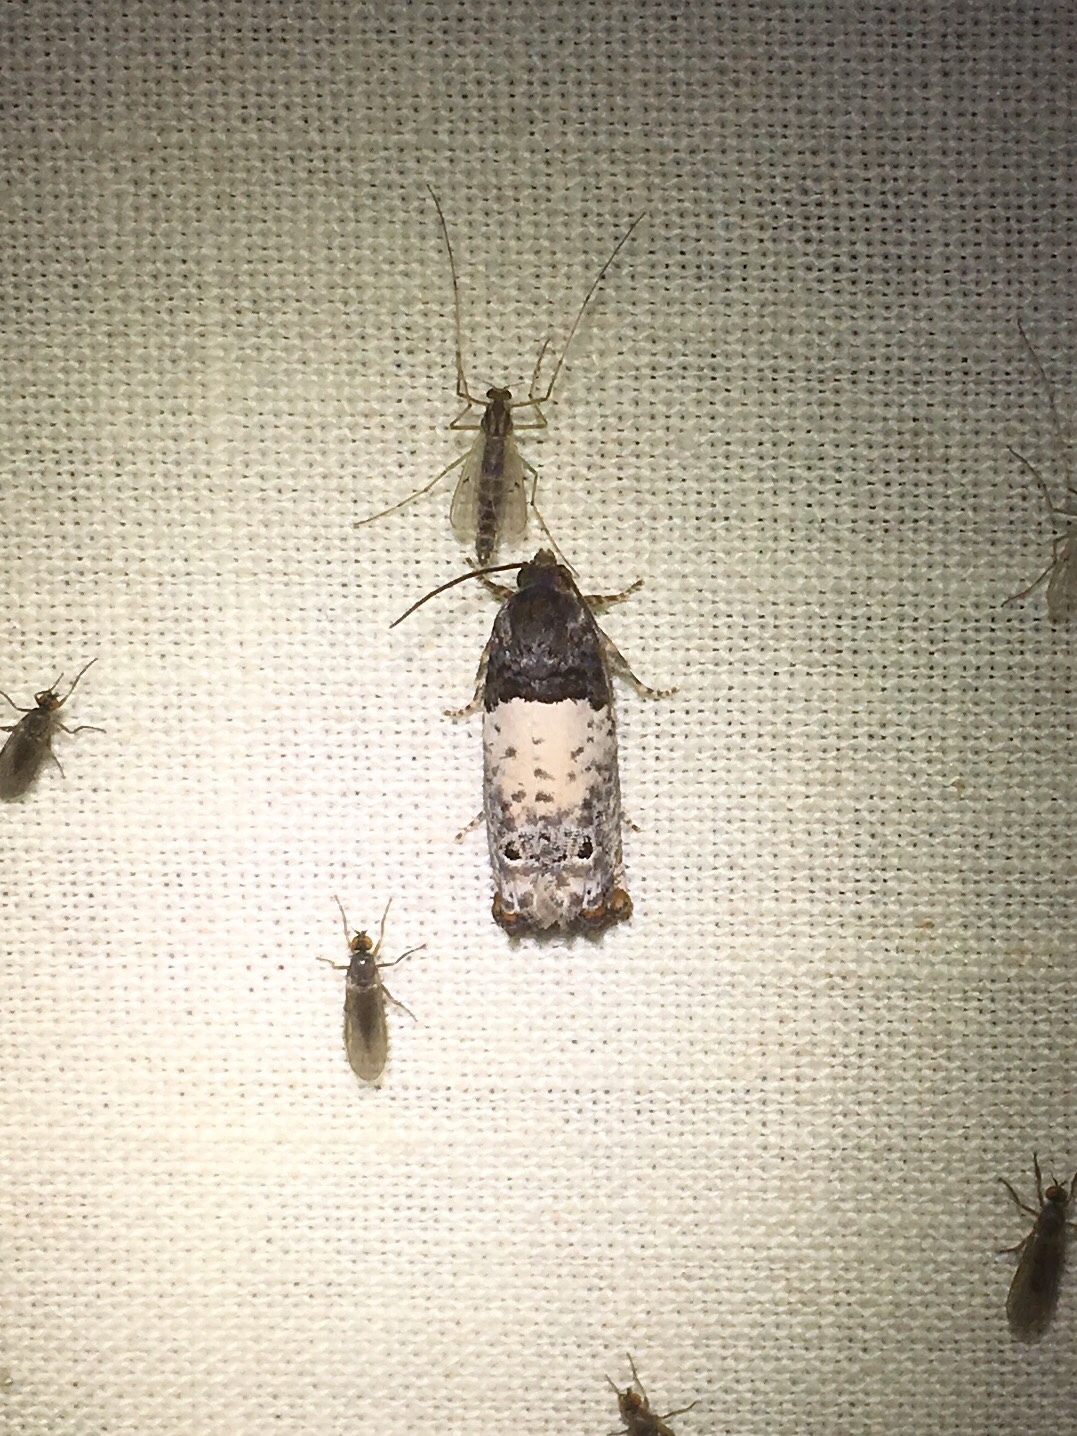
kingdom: Animalia
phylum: Arthropoda
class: Insecta
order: Lepidoptera
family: Tortricidae
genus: Epiblema
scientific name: Epiblema scudderiana
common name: Goldenrod gall moth
